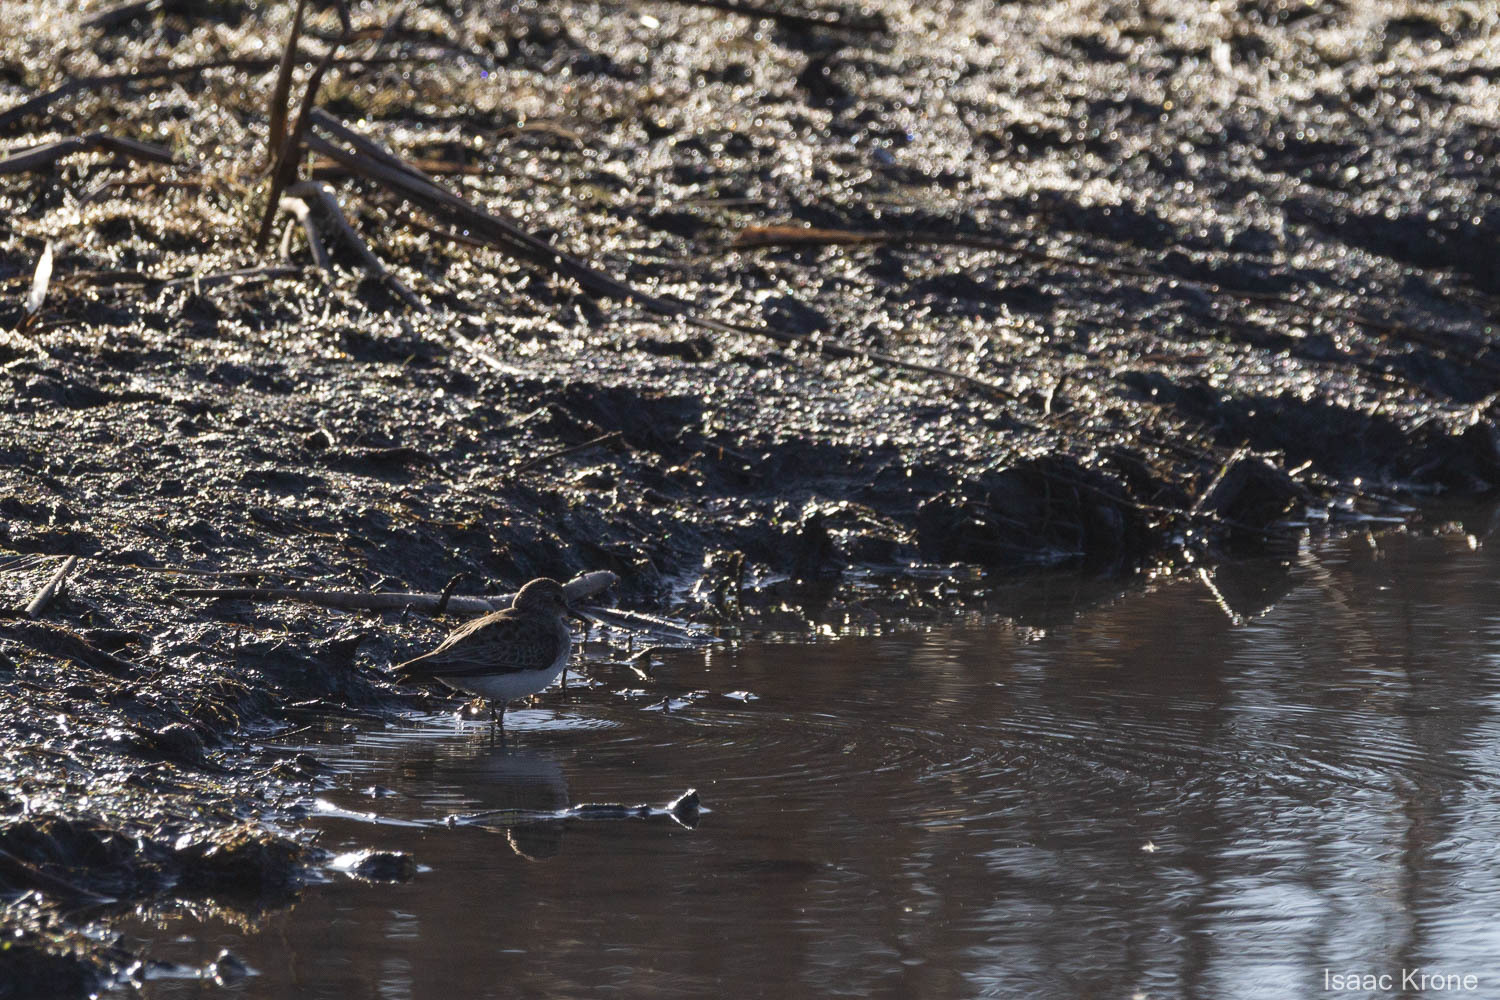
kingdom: Animalia
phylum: Chordata
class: Aves
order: Charadriiformes
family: Scolopacidae
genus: Calidris
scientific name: Calidris minutilla
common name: Least sandpiper
